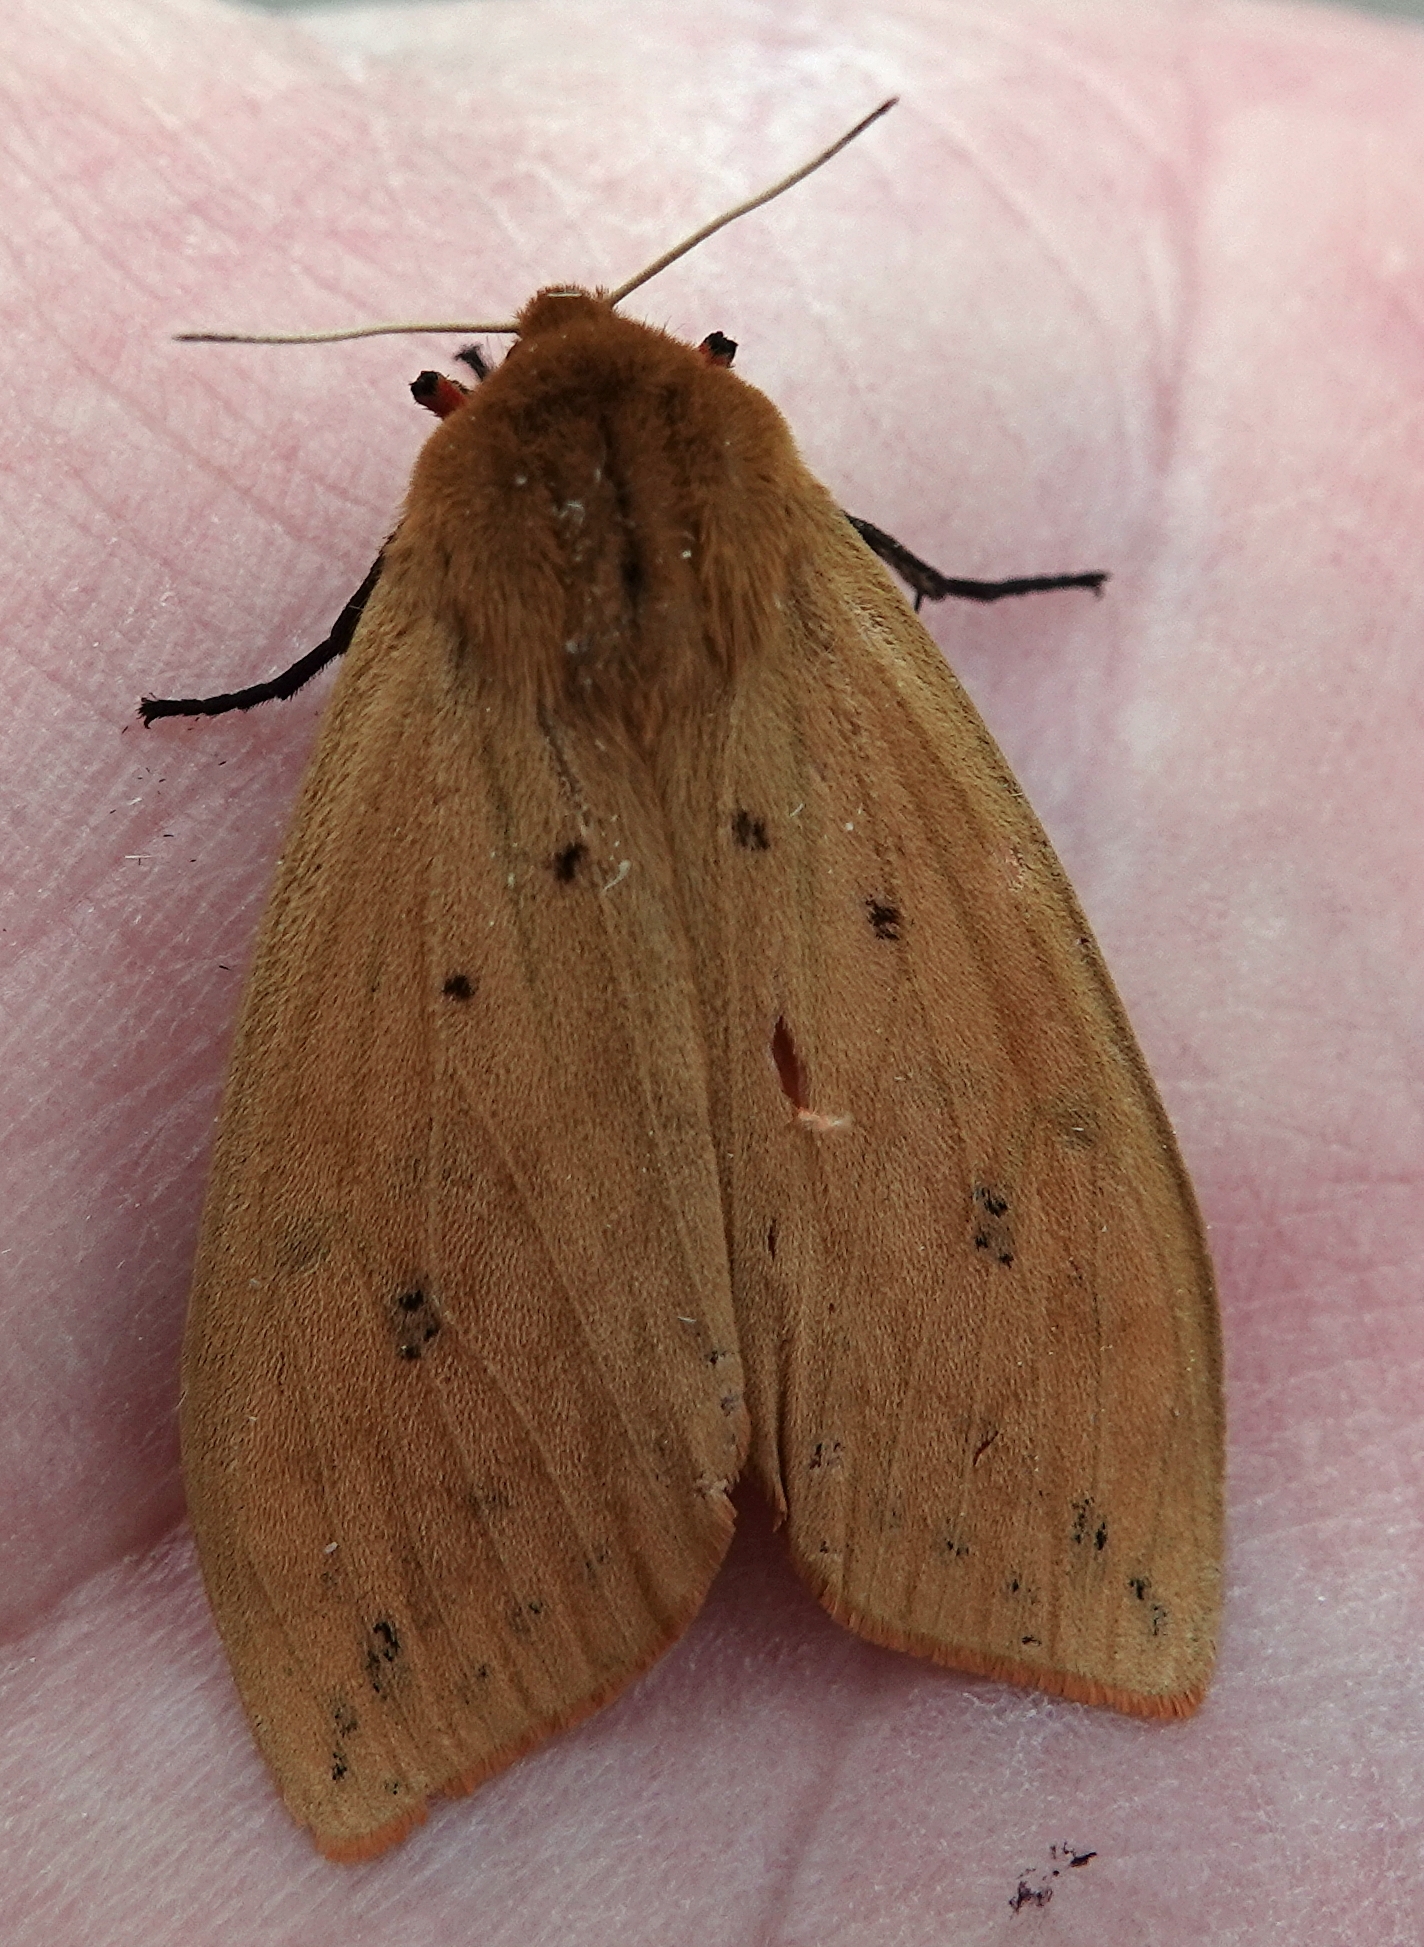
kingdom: Animalia
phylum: Arthropoda
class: Insecta
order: Lepidoptera
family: Erebidae
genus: Pyrrharctia
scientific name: Pyrrharctia isabella
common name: Isabella tiger moth
